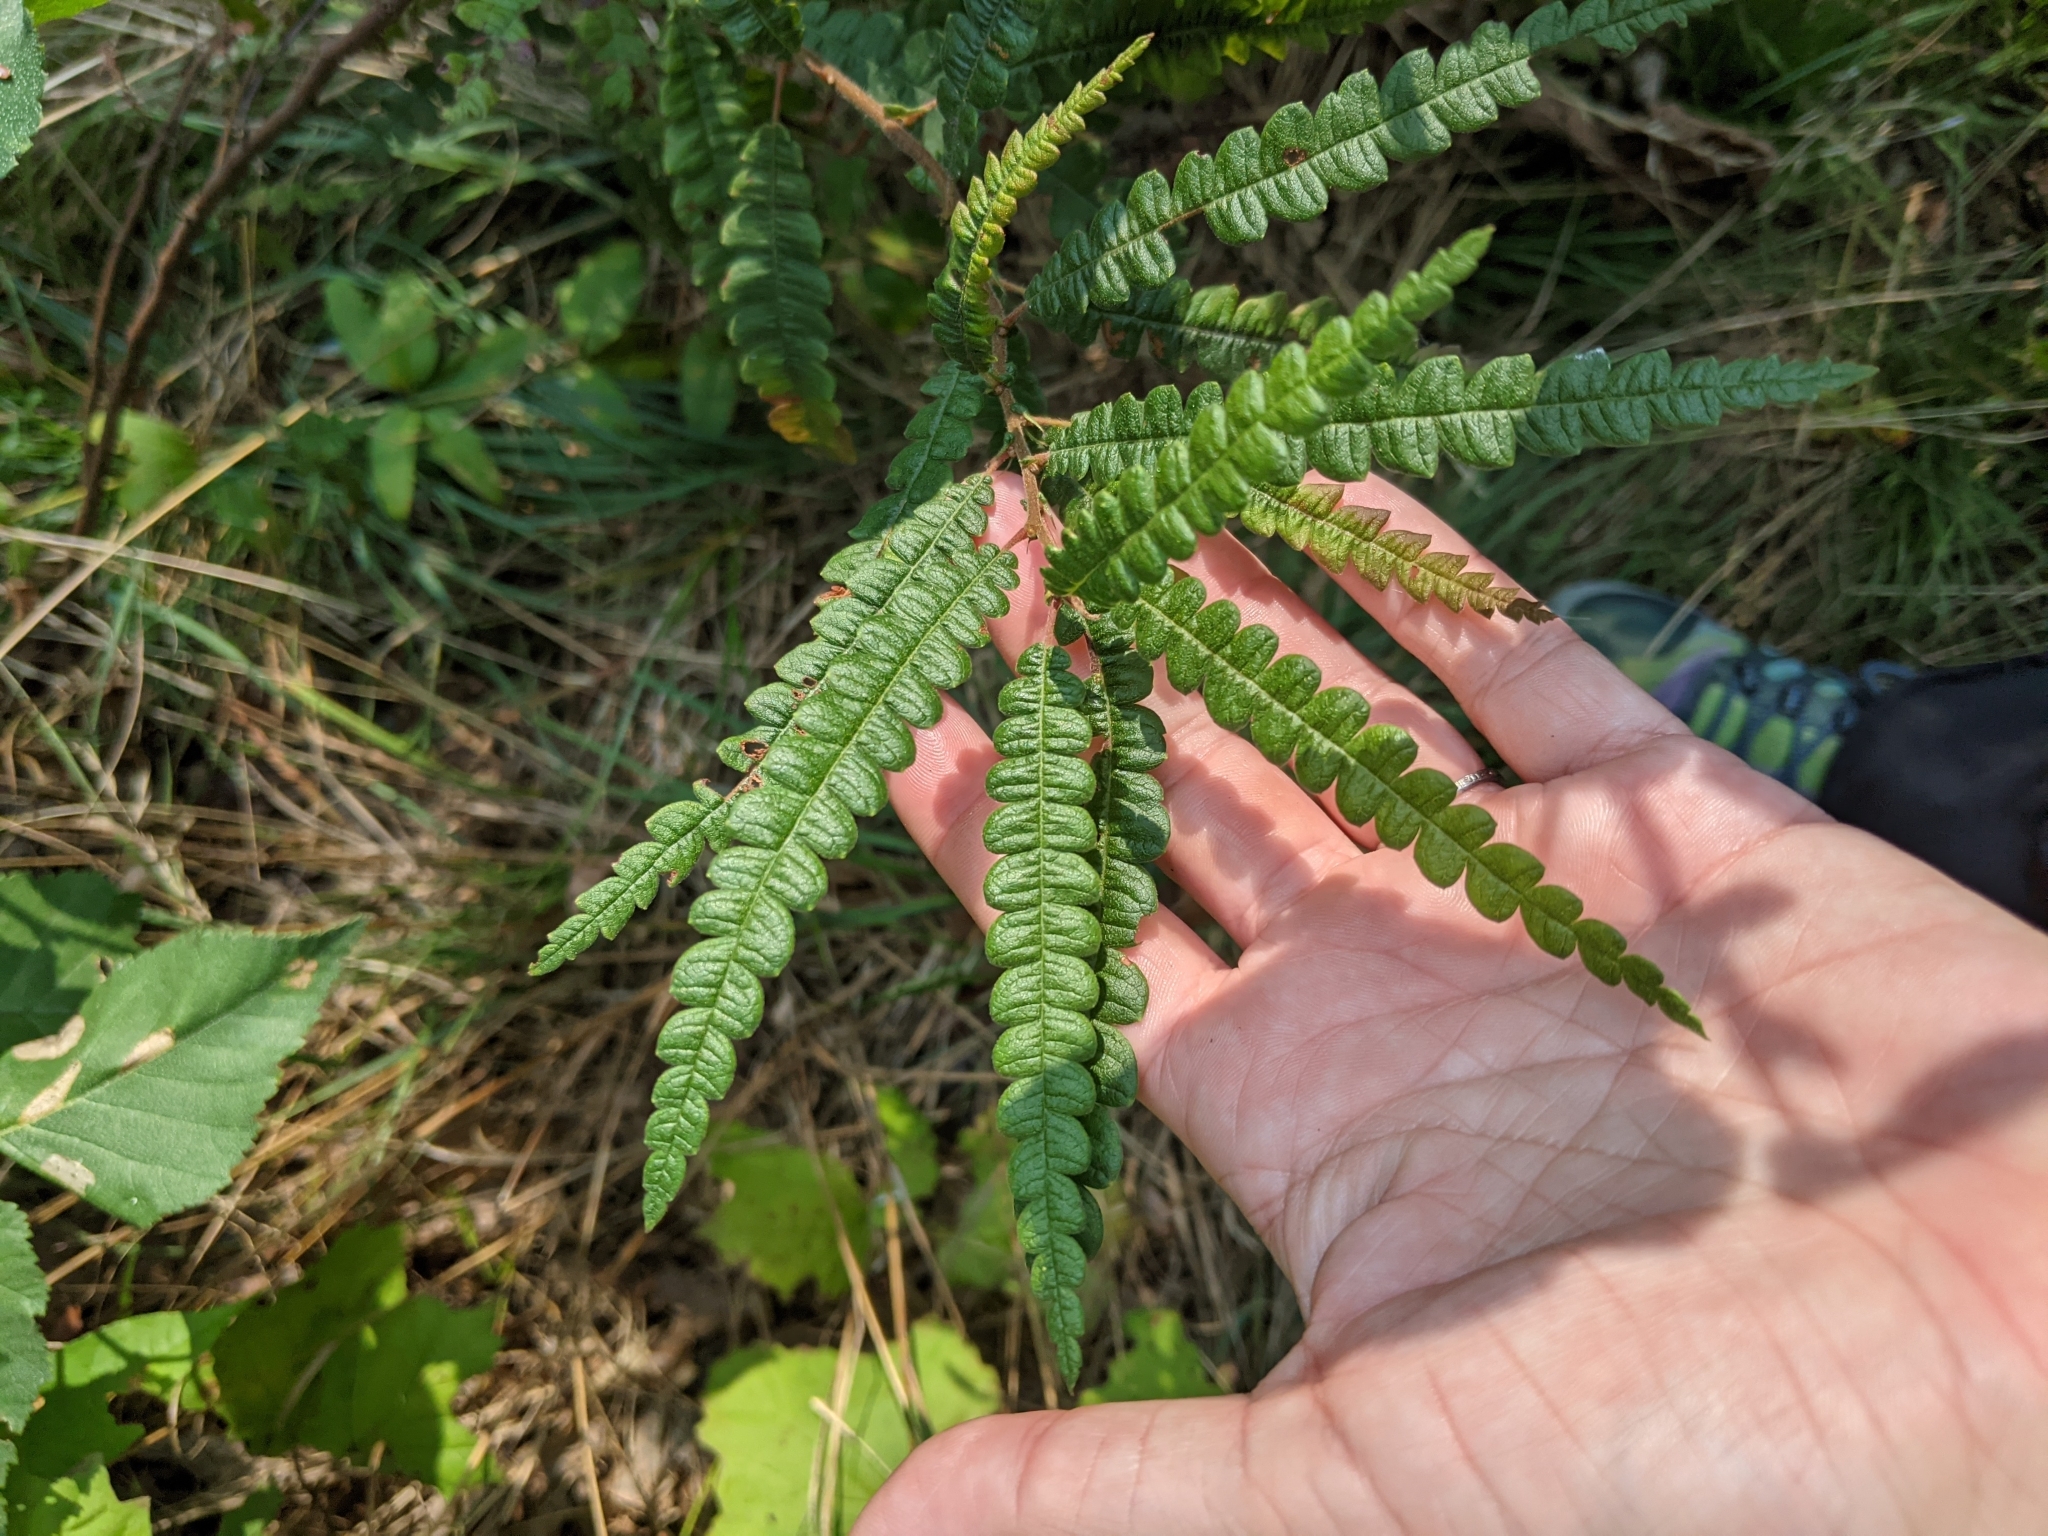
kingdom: Plantae
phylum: Tracheophyta
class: Magnoliopsida
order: Fagales
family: Myricaceae
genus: Comptonia
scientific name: Comptonia peregrina
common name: Sweet-fern
